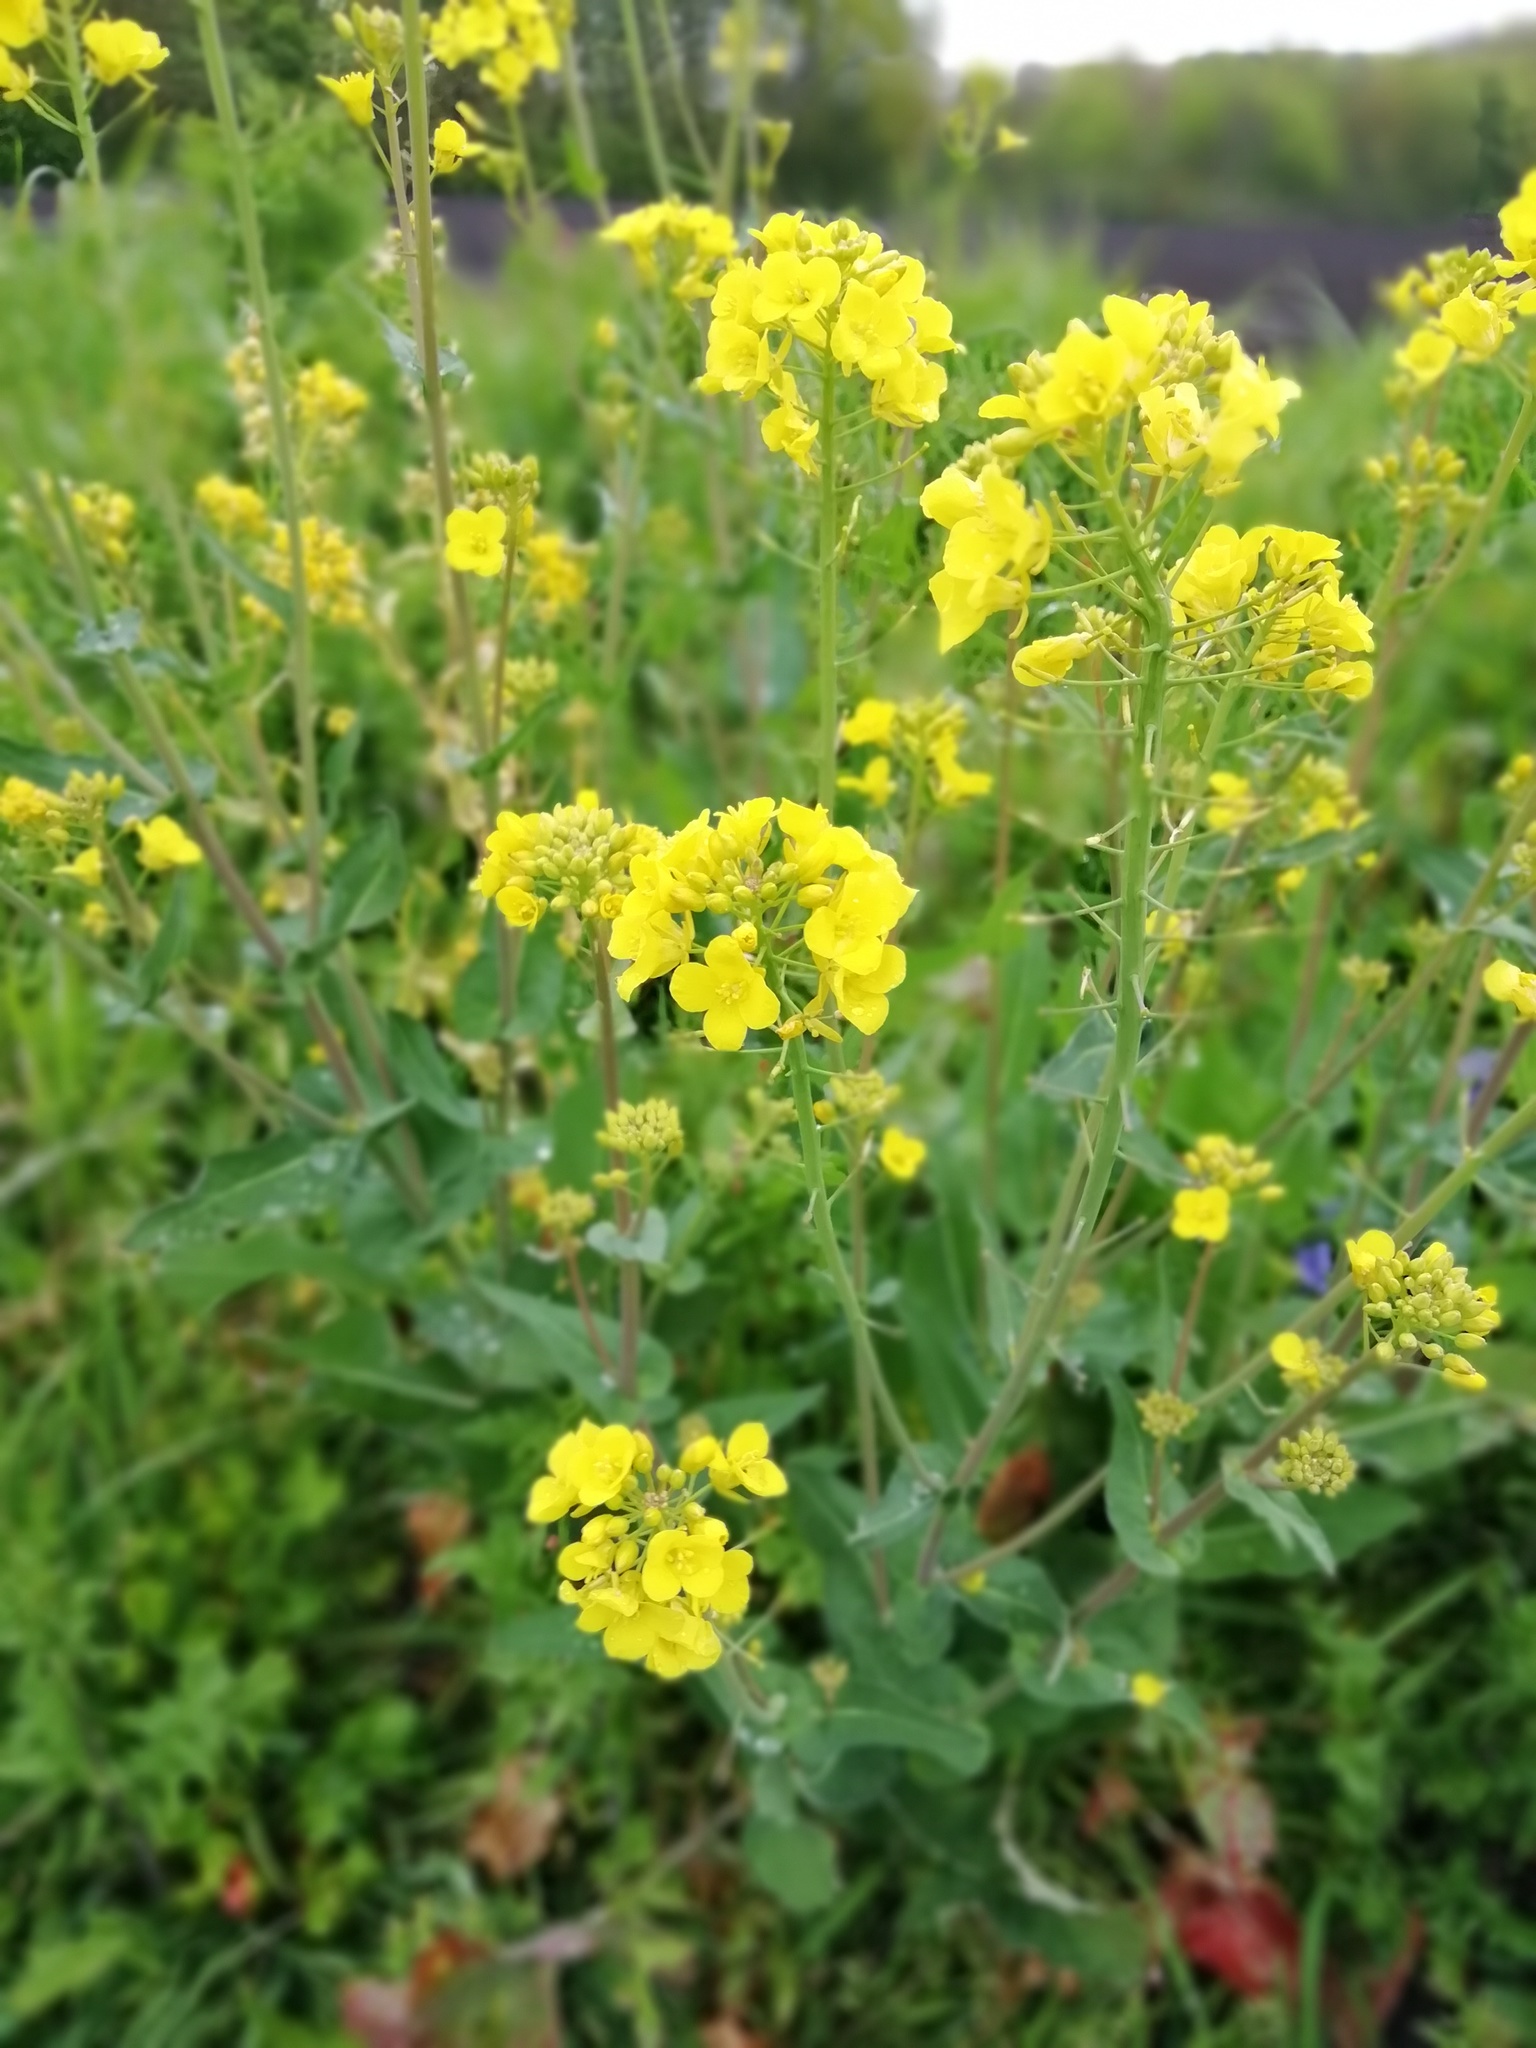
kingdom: Plantae
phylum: Tracheophyta
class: Magnoliopsida
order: Brassicales
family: Brassicaceae
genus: Brassica
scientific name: Brassica rapa
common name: Field mustard
